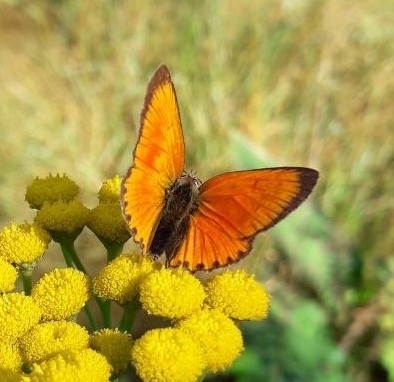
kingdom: Animalia
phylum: Arthropoda
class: Insecta
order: Lepidoptera
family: Lycaenidae
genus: Lycaena
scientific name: Lycaena virgaureae
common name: Scarce copper
